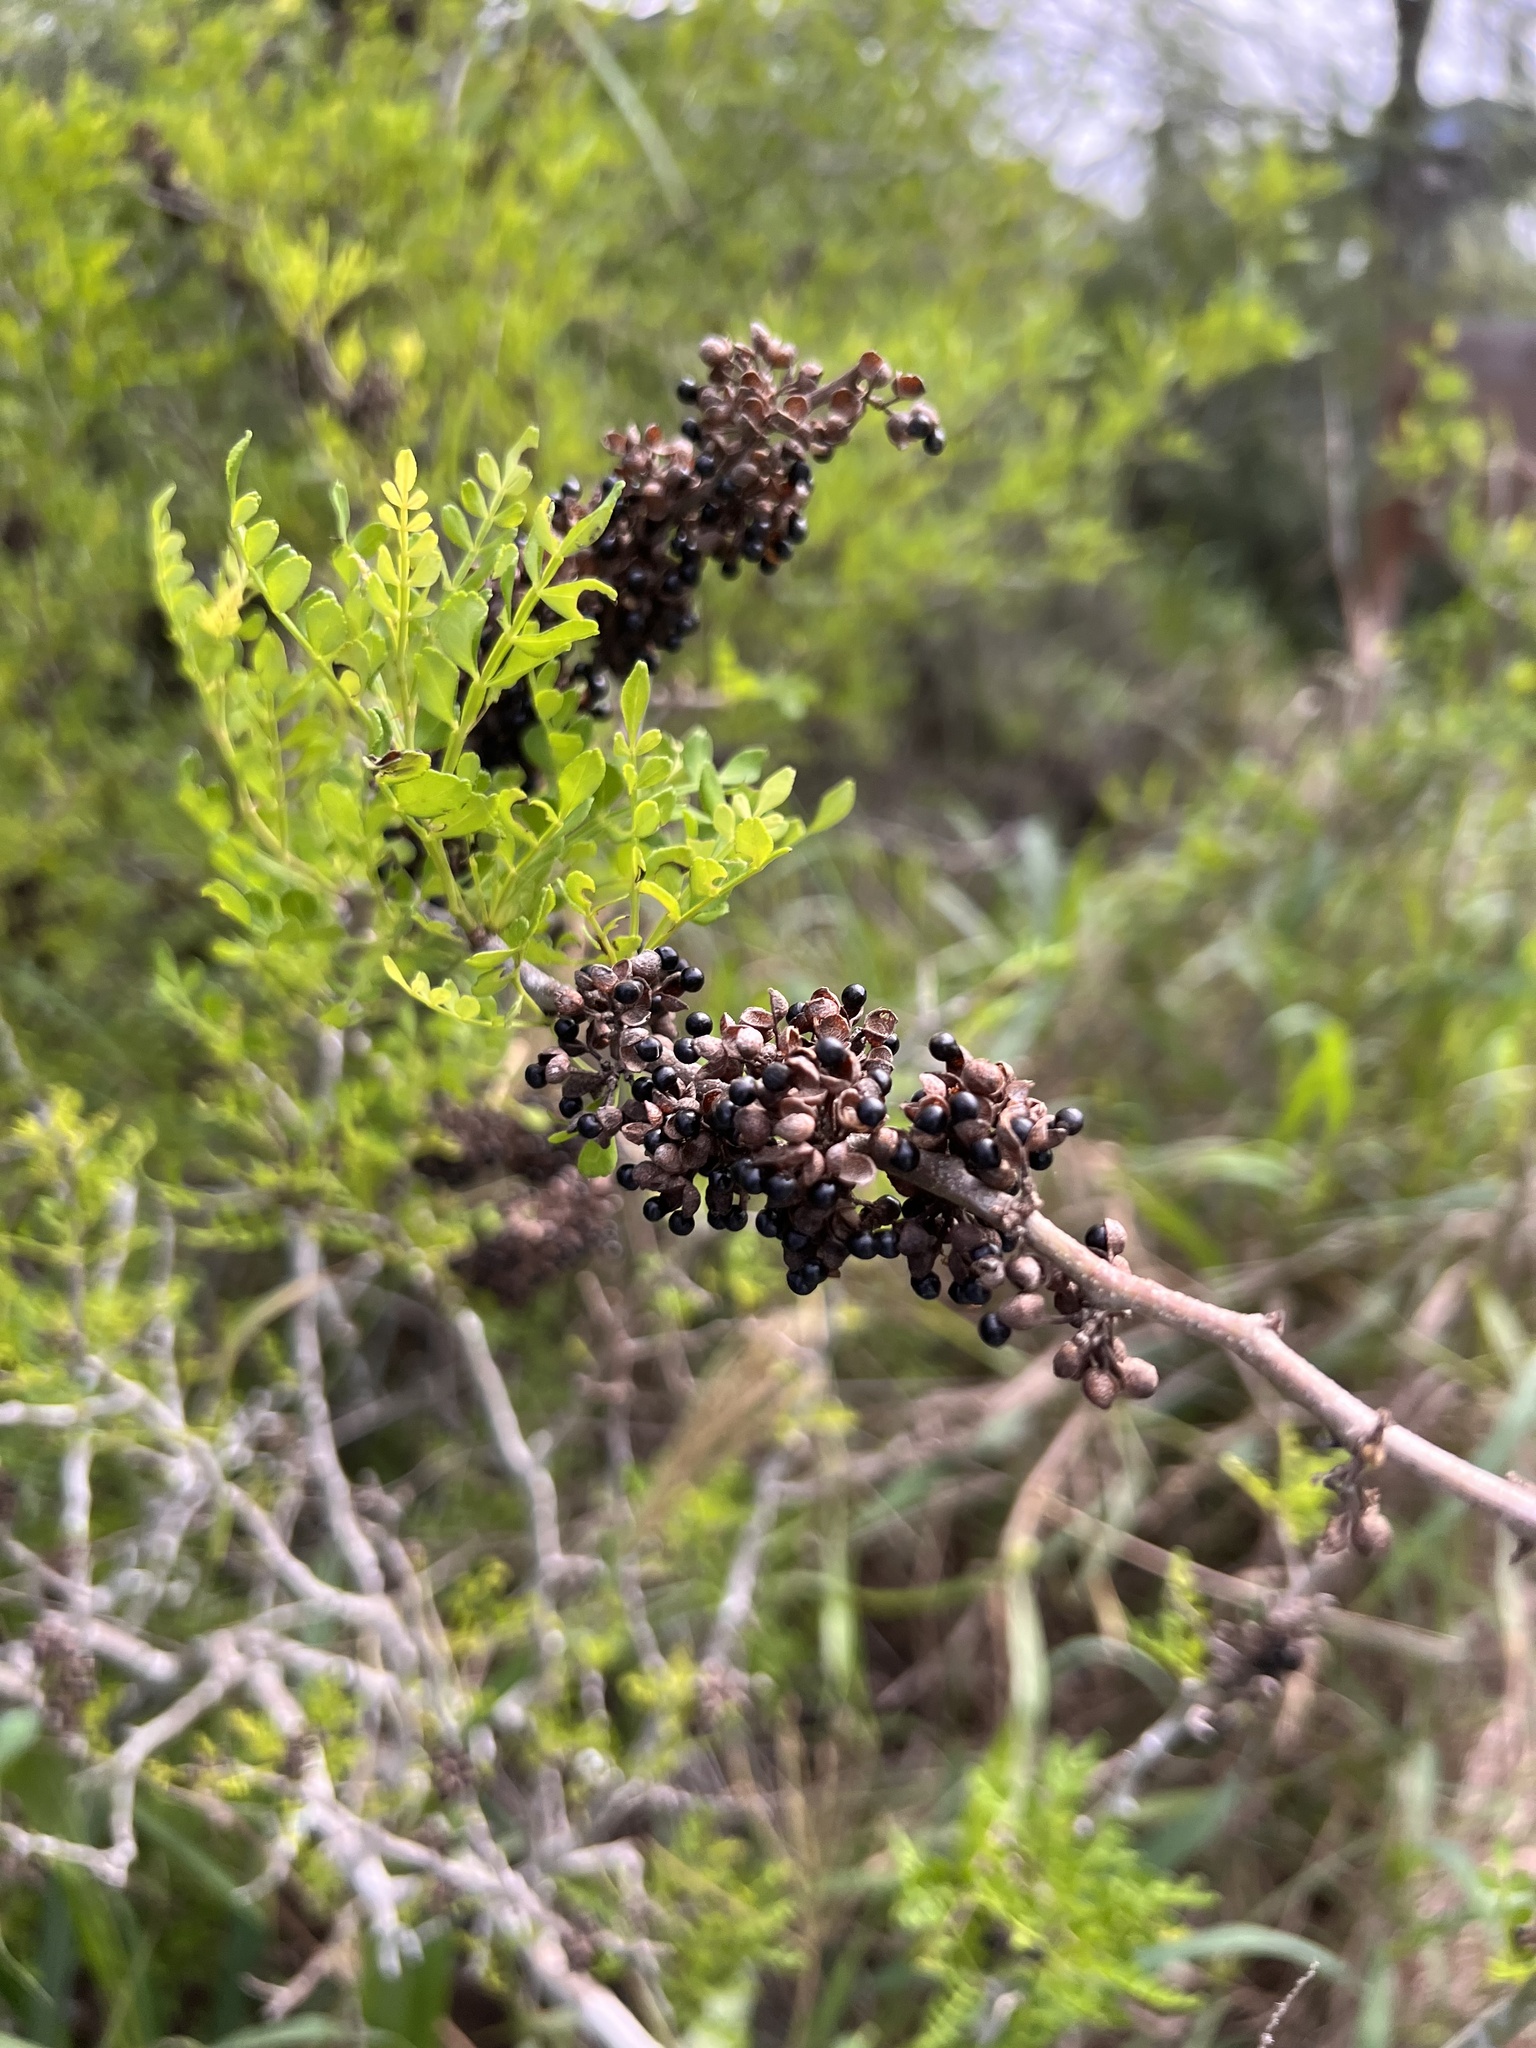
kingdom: Plantae
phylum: Tracheophyta
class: Magnoliopsida
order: Sapindales
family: Rutaceae
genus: Zanthoxylum
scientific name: Zanthoxylum fagara
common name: Lime prickly-ash
